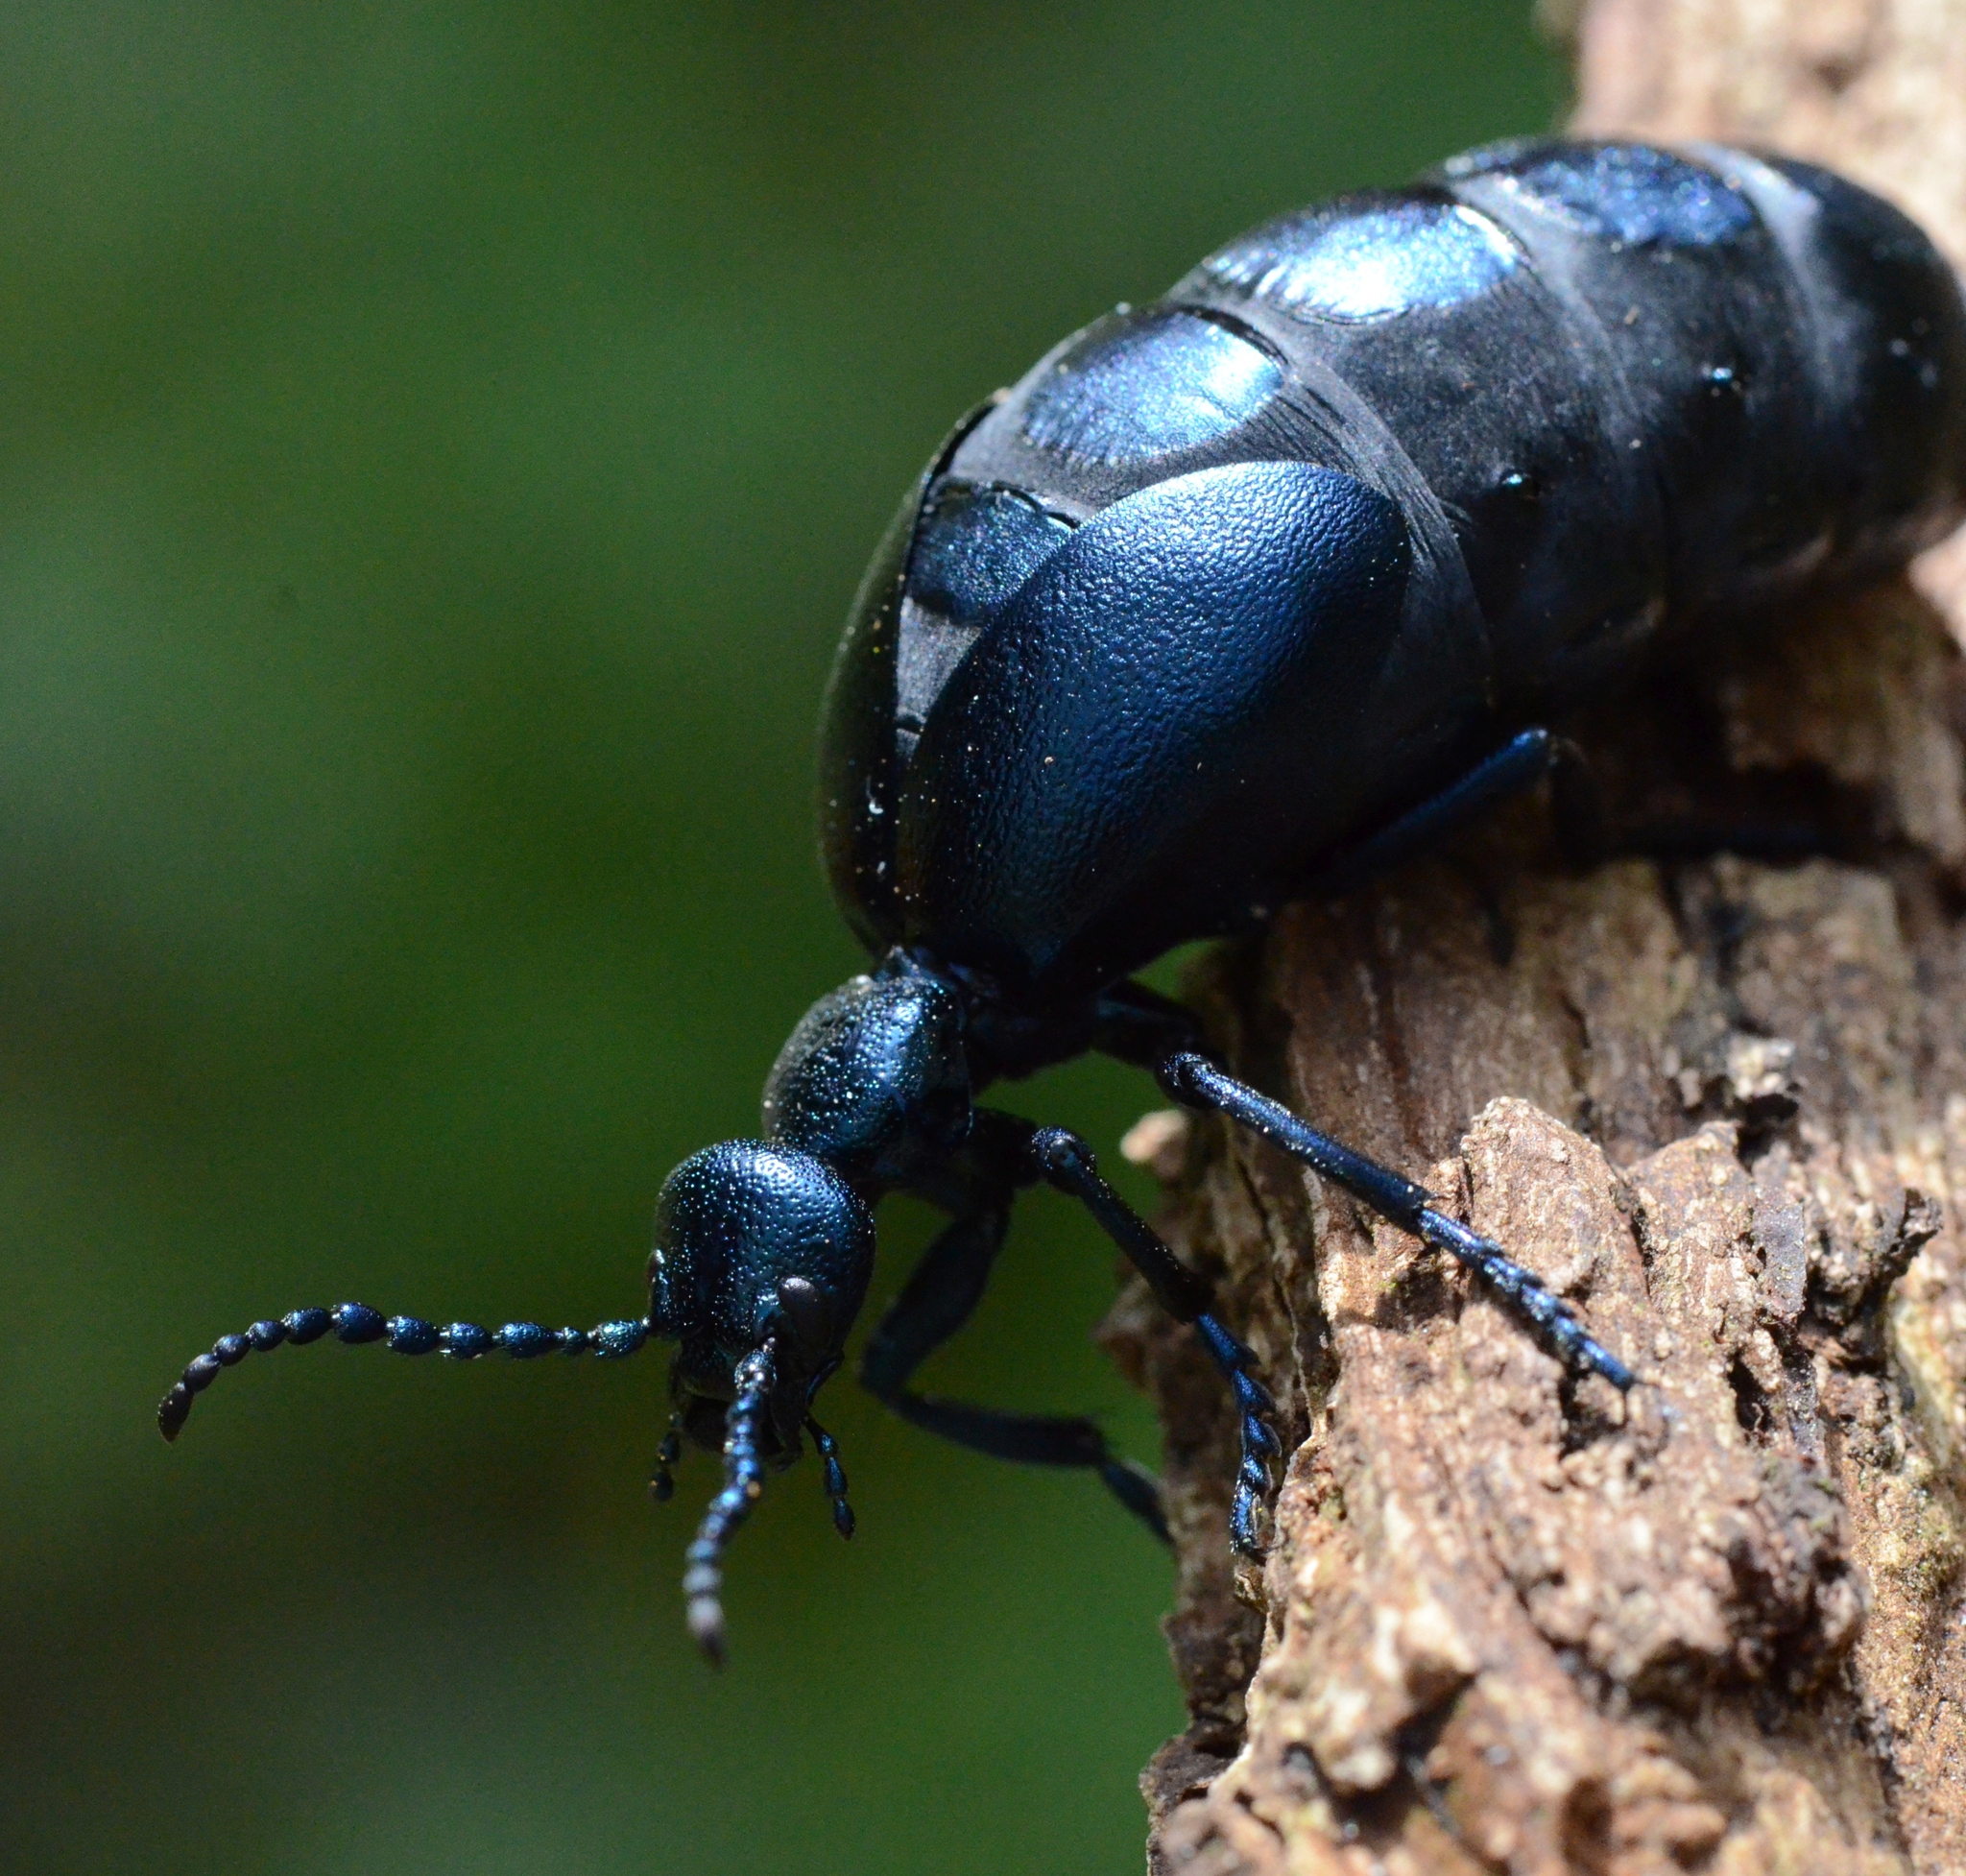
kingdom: Animalia
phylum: Arthropoda
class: Insecta
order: Coleoptera
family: Meloidae
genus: Meloe
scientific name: Meloe violaceus
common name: Violet oil-beetle
